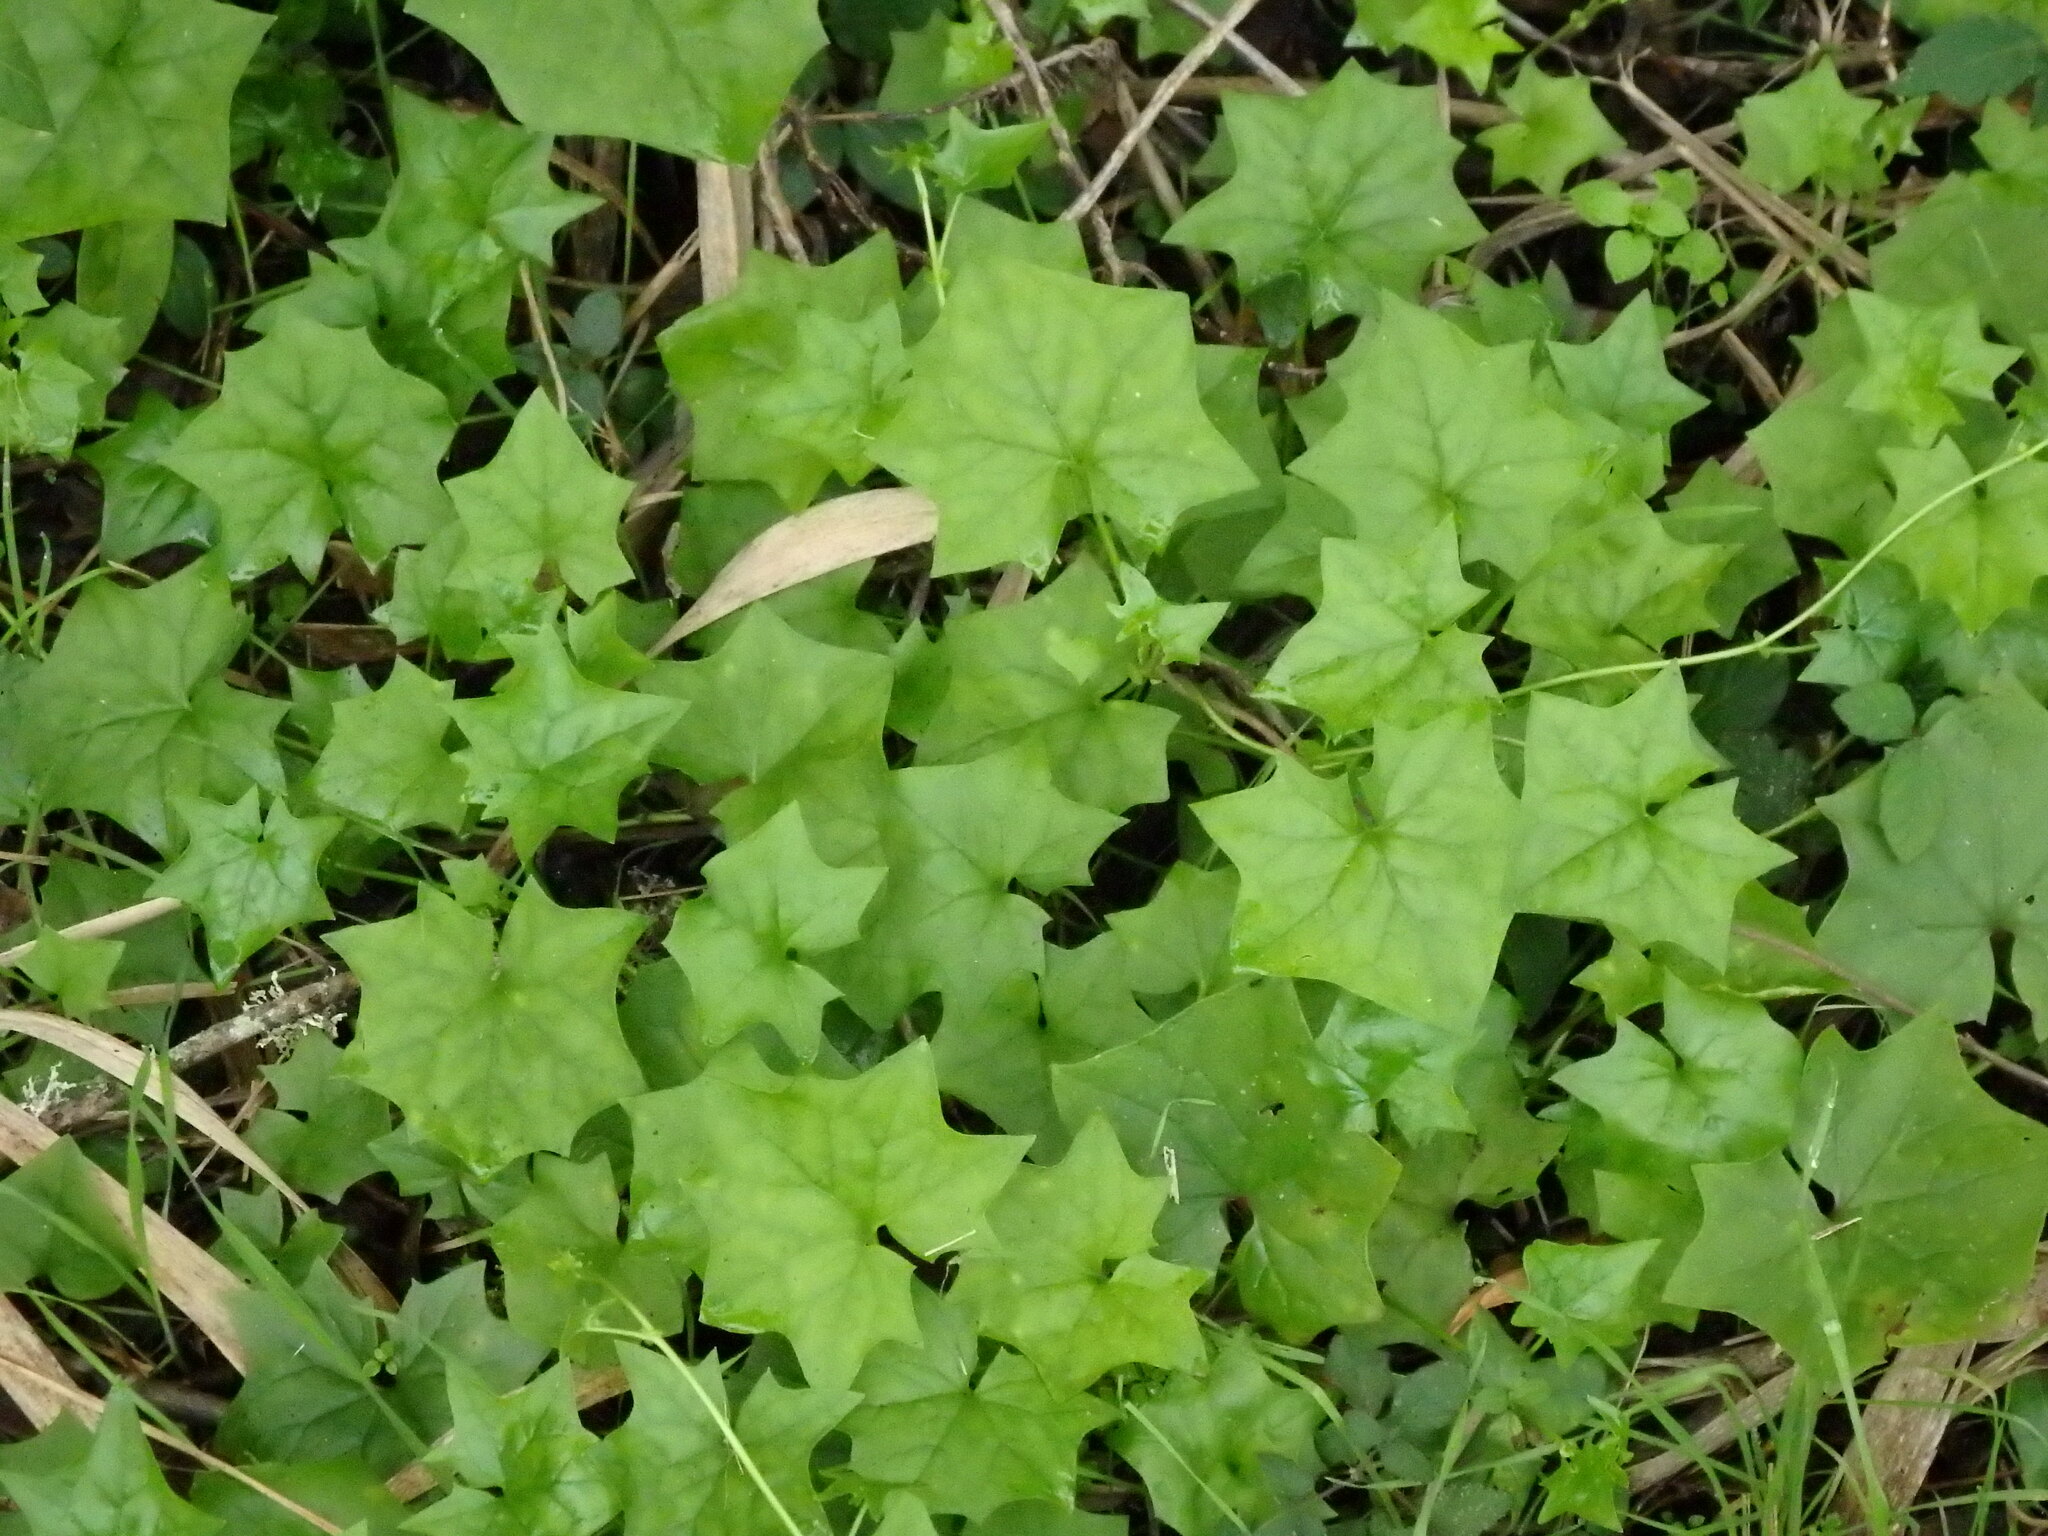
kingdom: Plantae
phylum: Tracheophyta
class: Magnoliopsida
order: Asterales
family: Asteraceae
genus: Delairea
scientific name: Delairea odorata
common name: Cape-ivy
